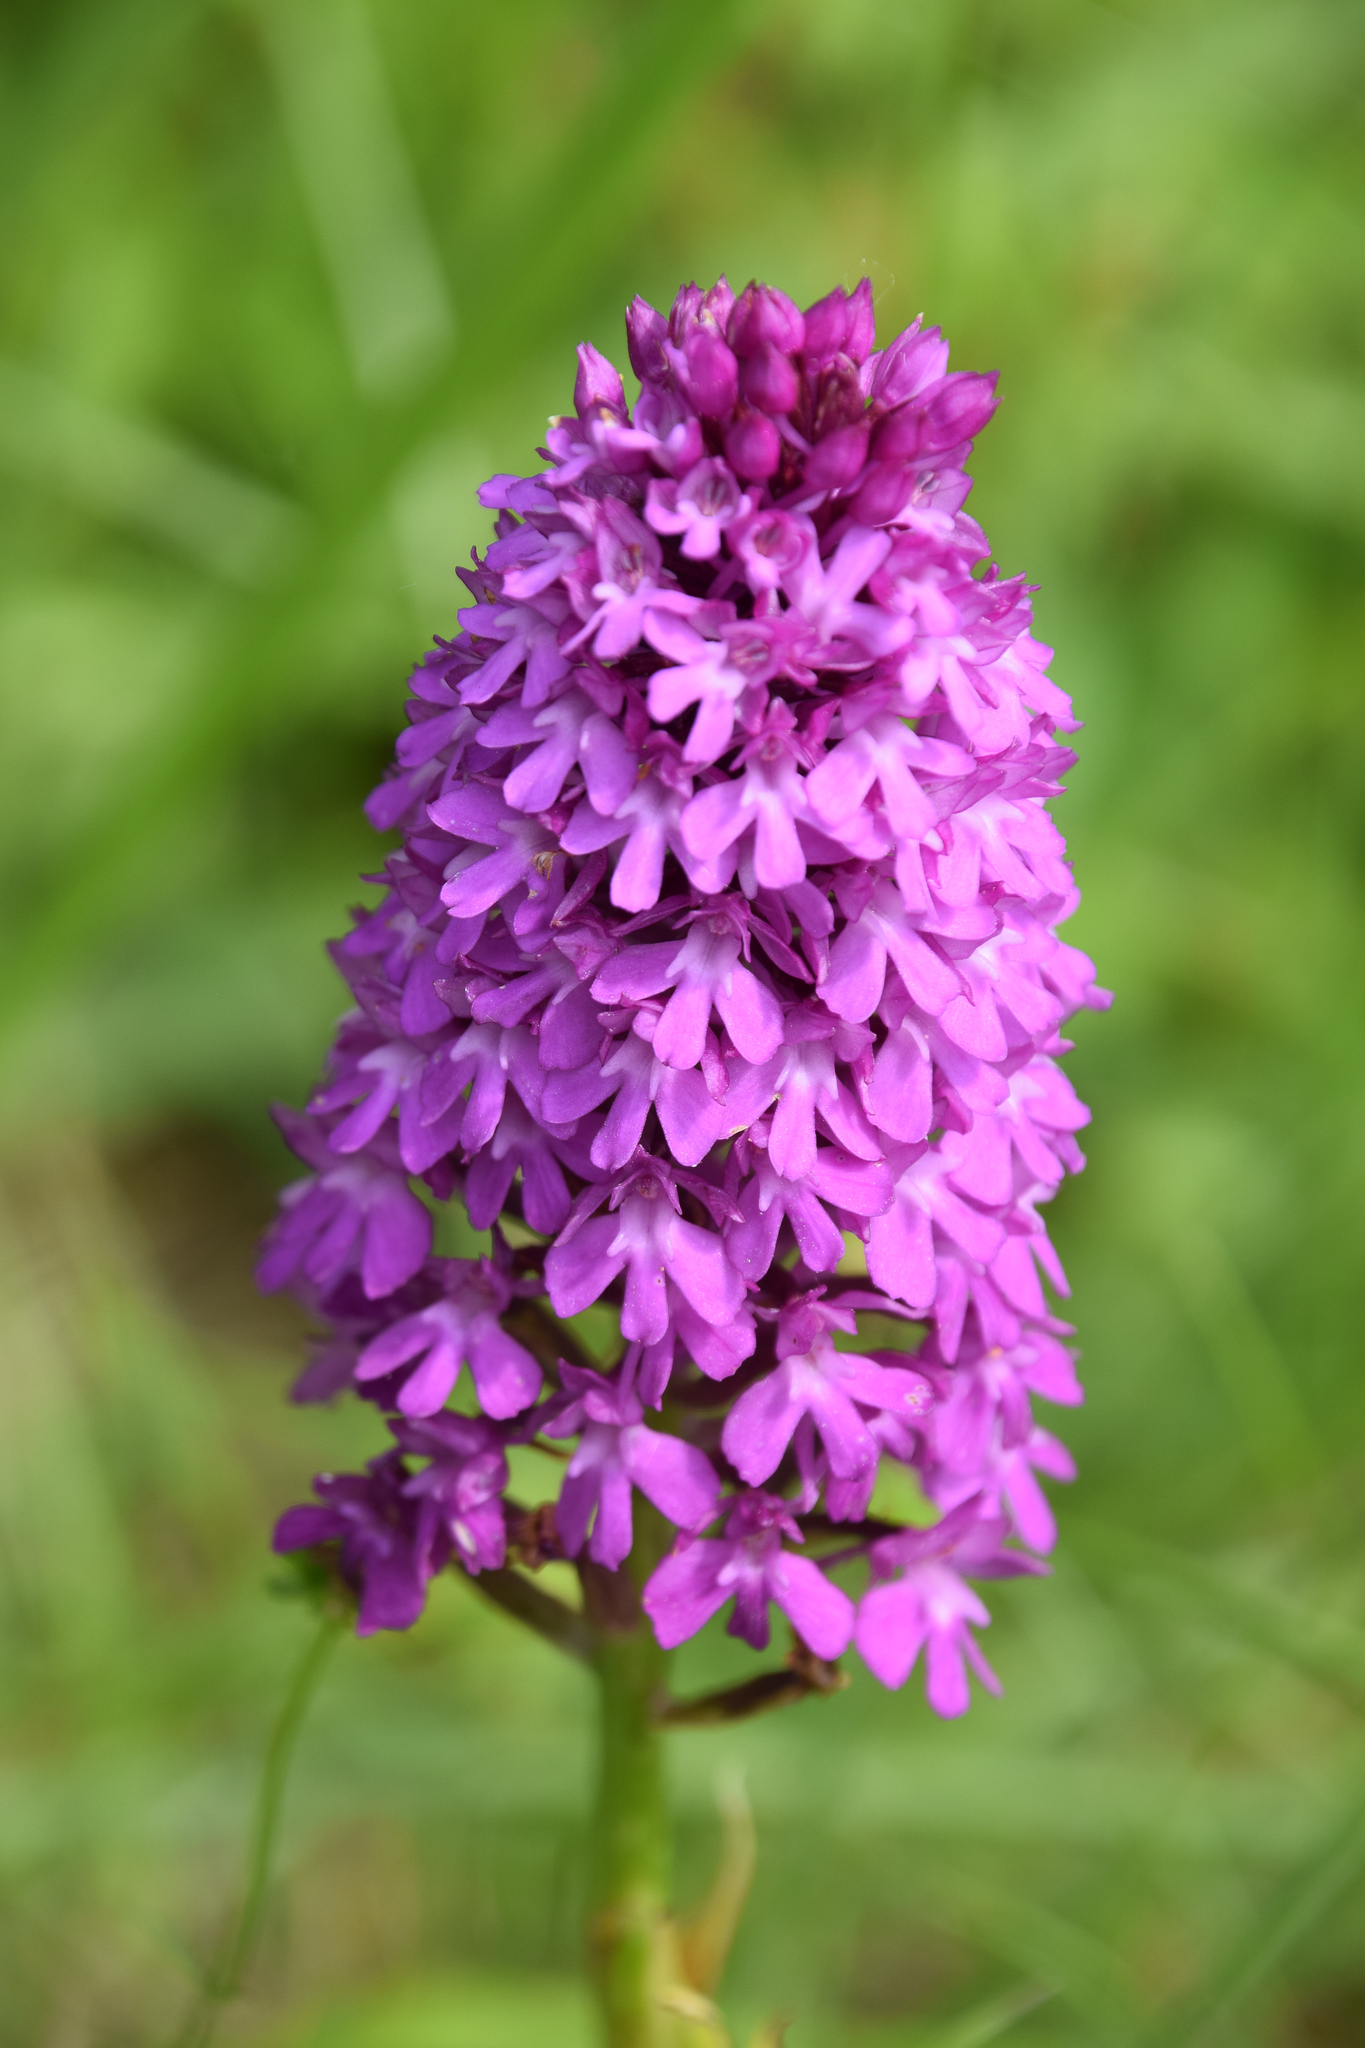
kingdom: Plantae
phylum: Tracheophyta
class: Liliopsida
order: Asparagales
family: Orchidaceae
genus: Anacamptis
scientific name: Anacamptis pyramidalis
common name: Pyramidal orchid
